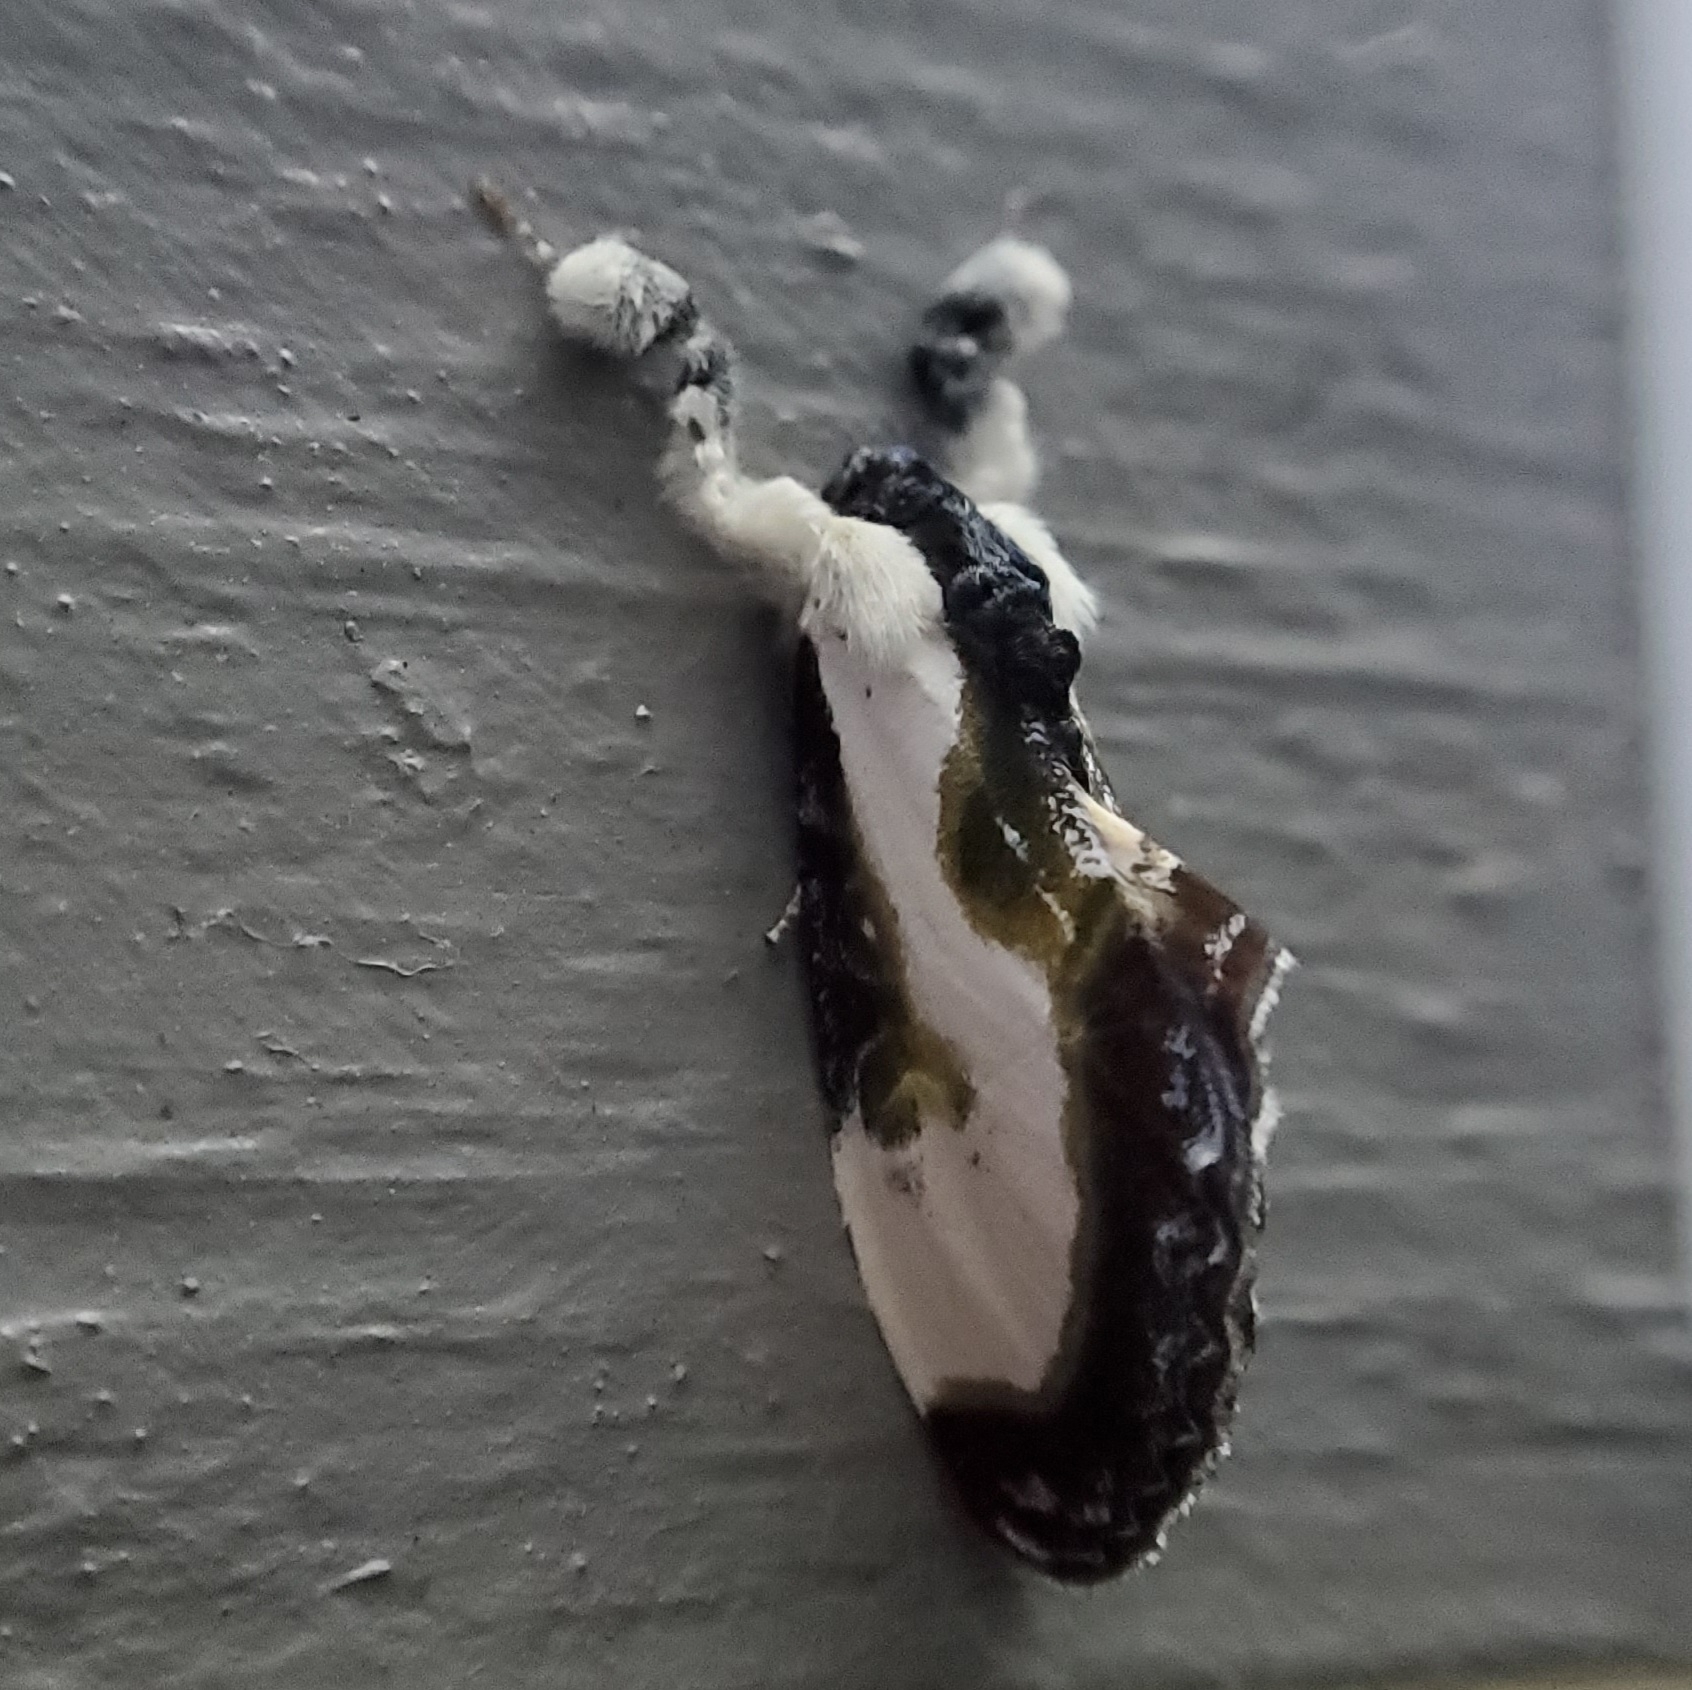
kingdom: Animalia
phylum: Arthropoda
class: Insecta
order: Lepidoptera
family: Noctuidae
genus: Eudryas
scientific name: Eudryas grata
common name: Beautiful wood-nymph
